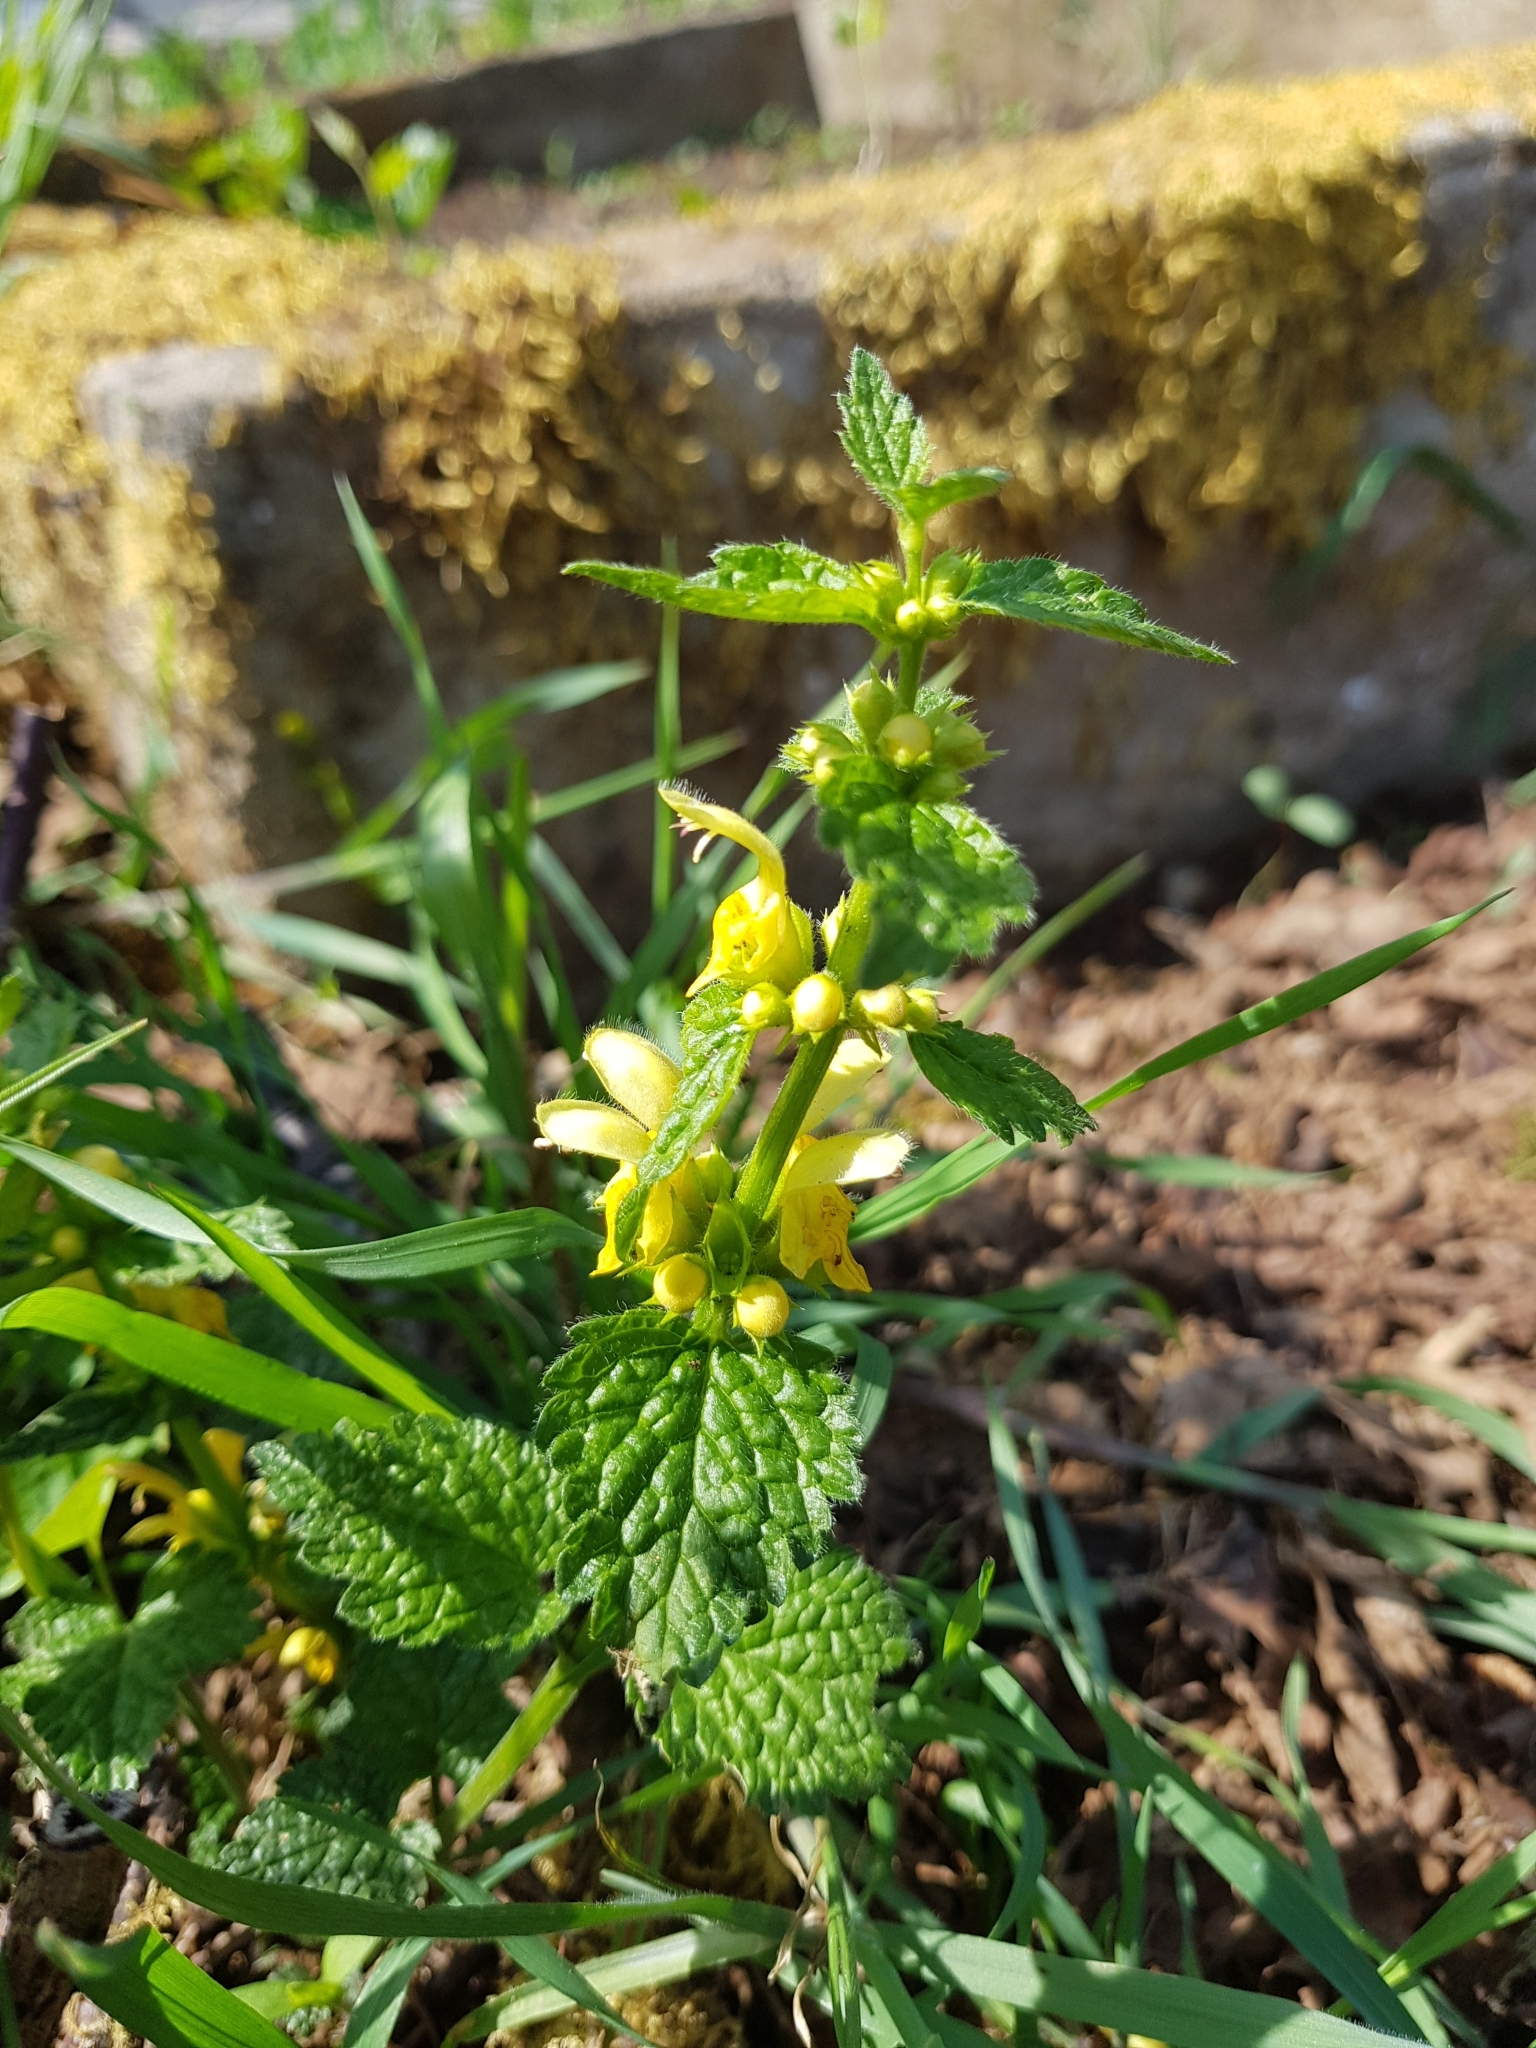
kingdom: Plantae
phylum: Tracheophyta
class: Magnoliopsida
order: Lamiales
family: Lamiaceae
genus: Lamium
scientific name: Lamium galeobdolon
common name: Yellow archangel
